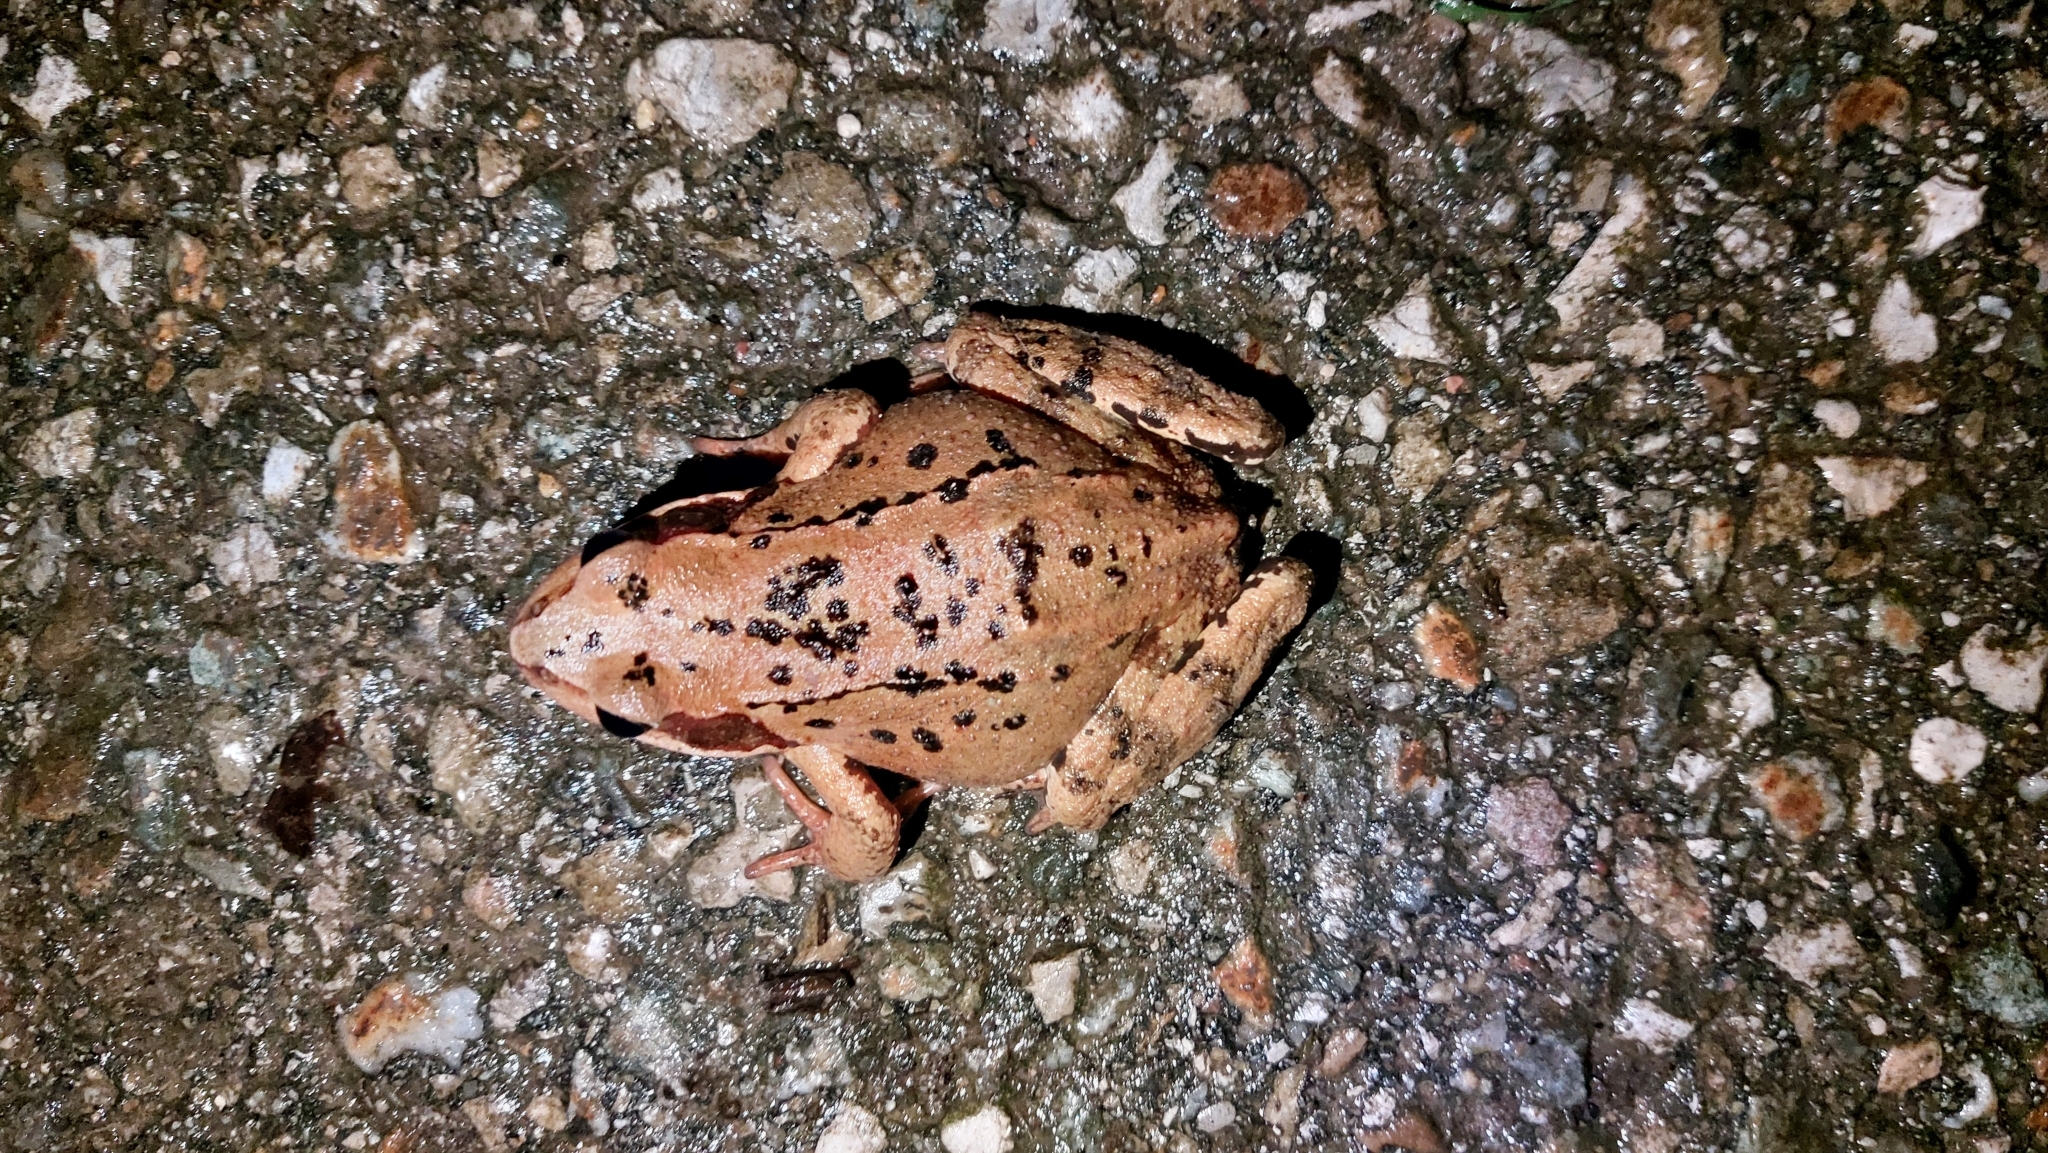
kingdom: Animalia
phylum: Chordata
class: Amphibia
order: Anura
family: Ranidae
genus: Rana
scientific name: Rana temporaria
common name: Common frog
